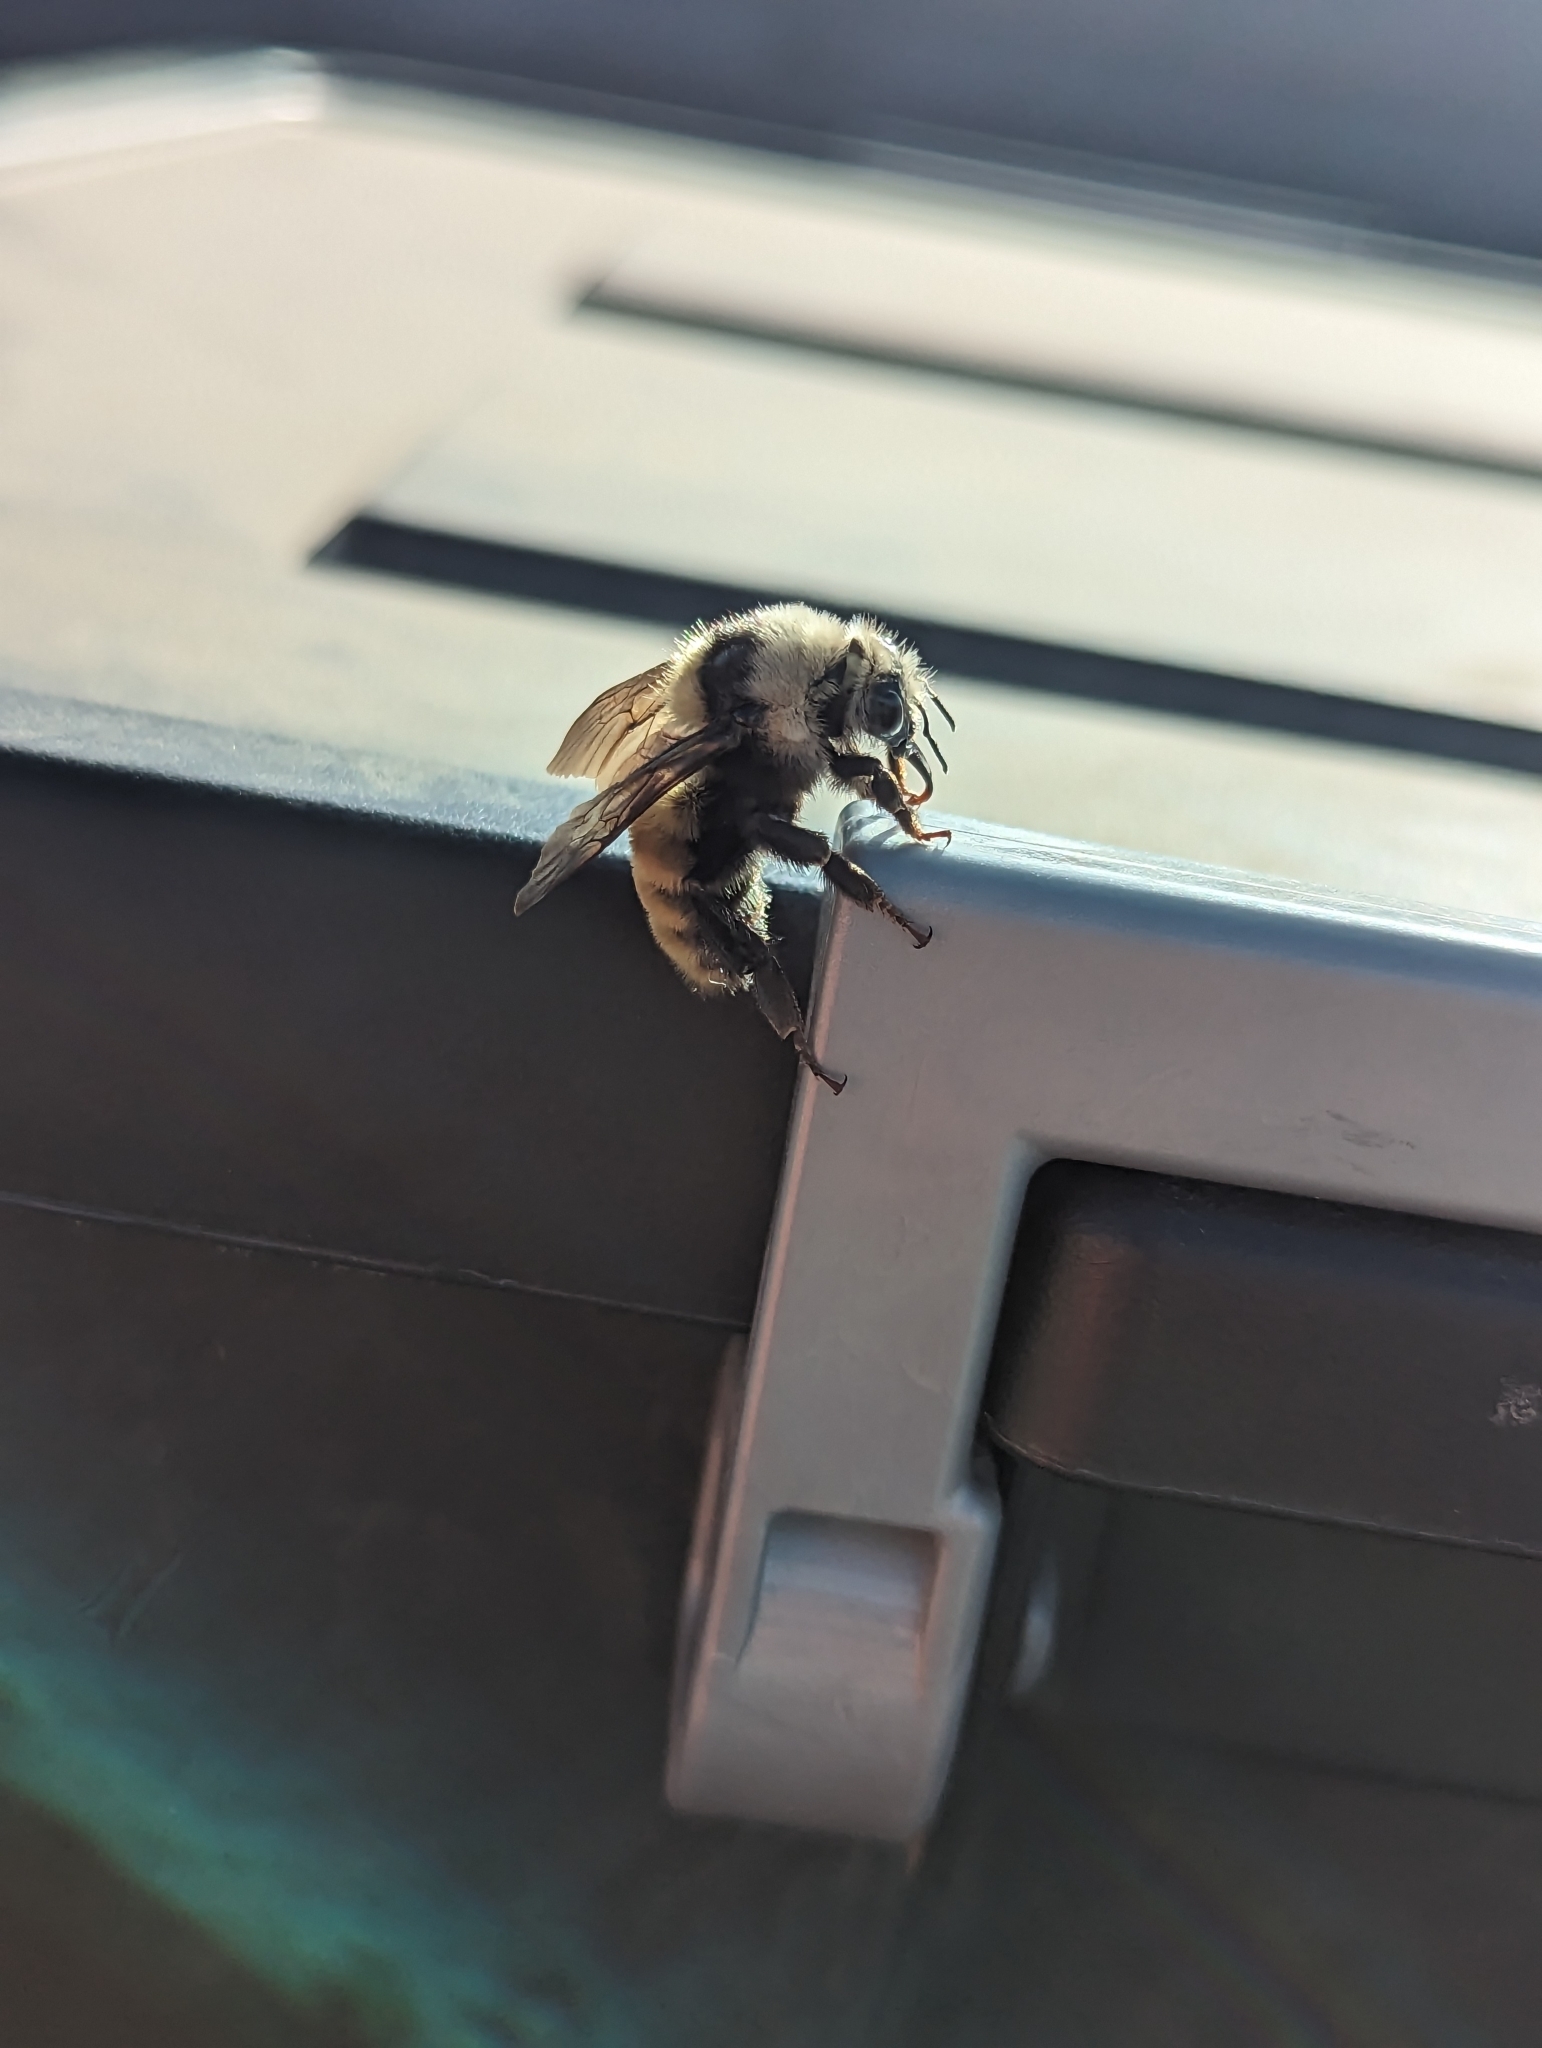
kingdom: Animalia
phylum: Arthropoda
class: Insecta
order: Hymenoptera
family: Apidae
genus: Bombus
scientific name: Bombus appositus
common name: White-shouldered bumble bee
